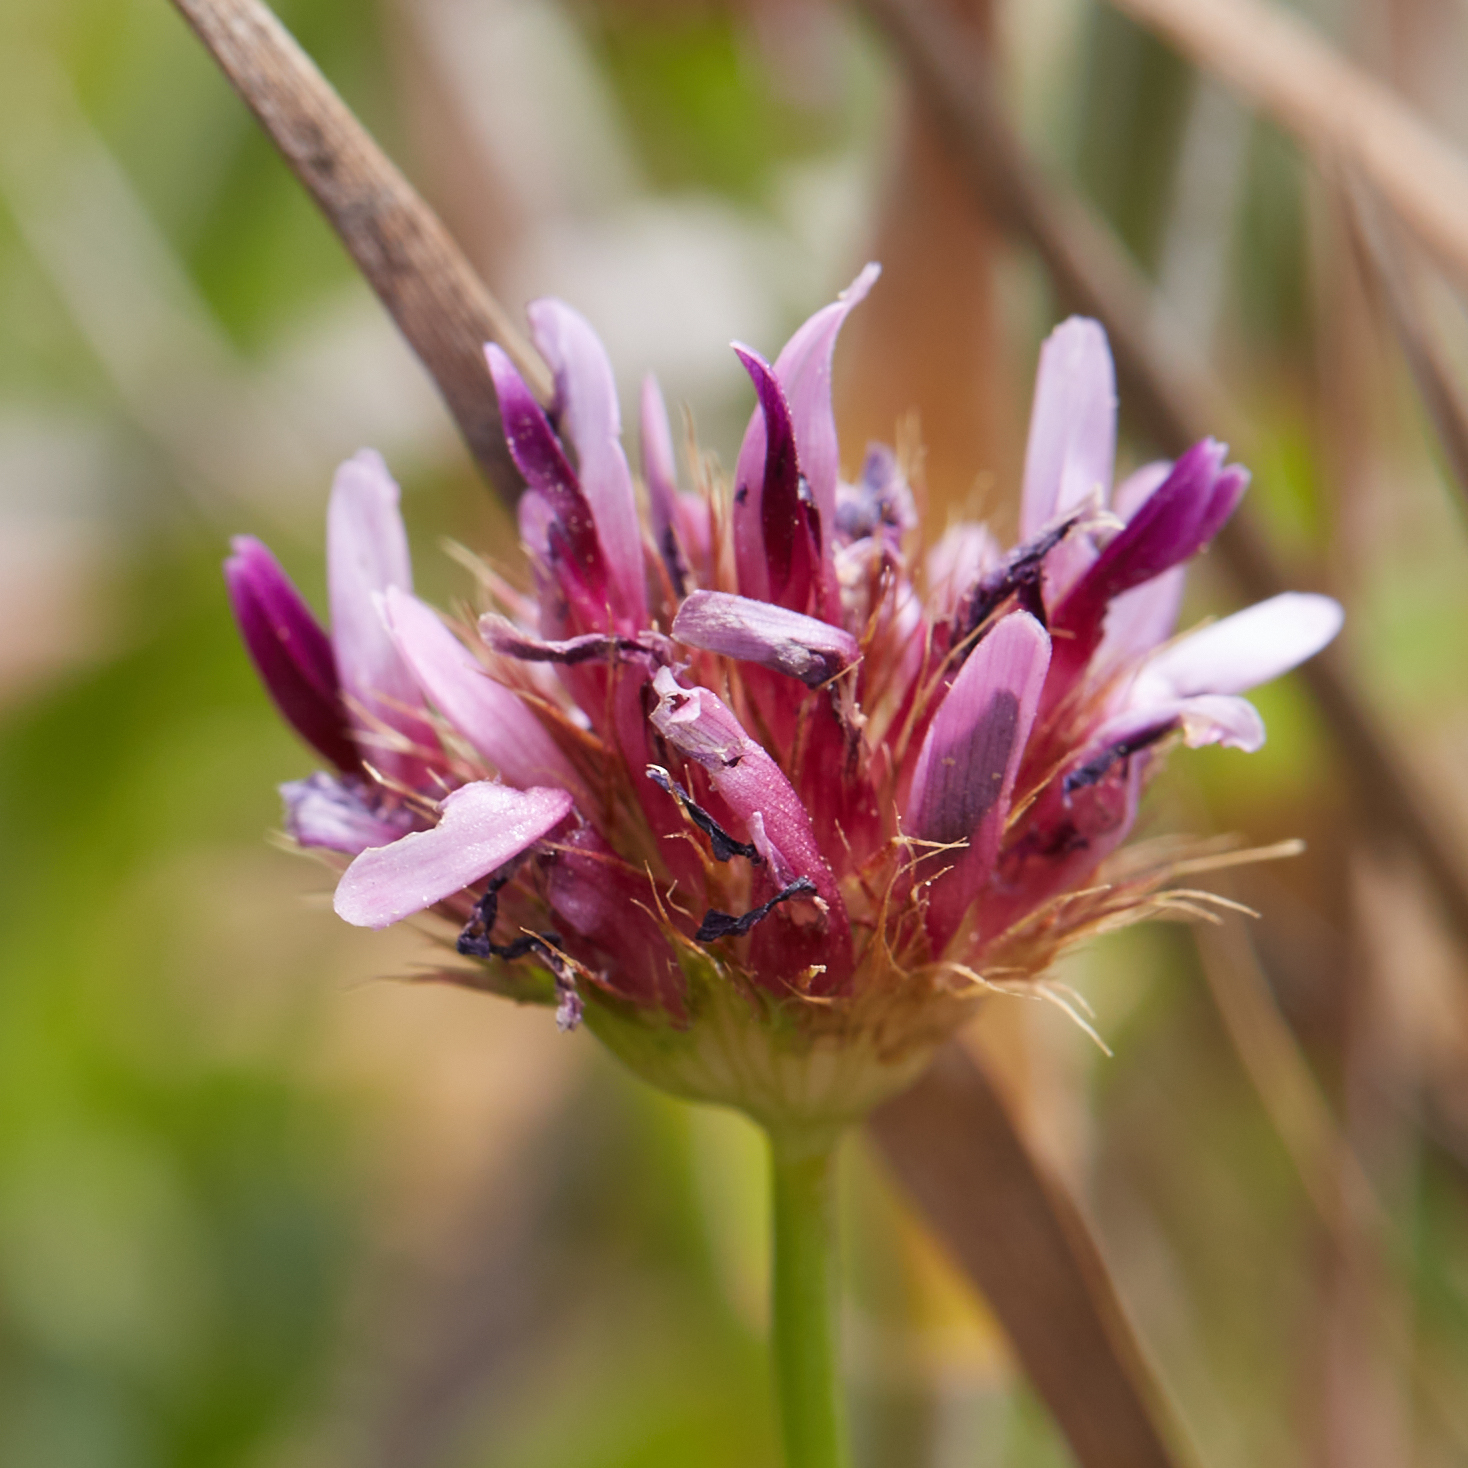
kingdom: Plantae
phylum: Tracheophyta
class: Magnoliopsida
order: Fabales
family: Fabaceae
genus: Trifolium
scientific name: Trifolium wormskioldii
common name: Springbank clover
